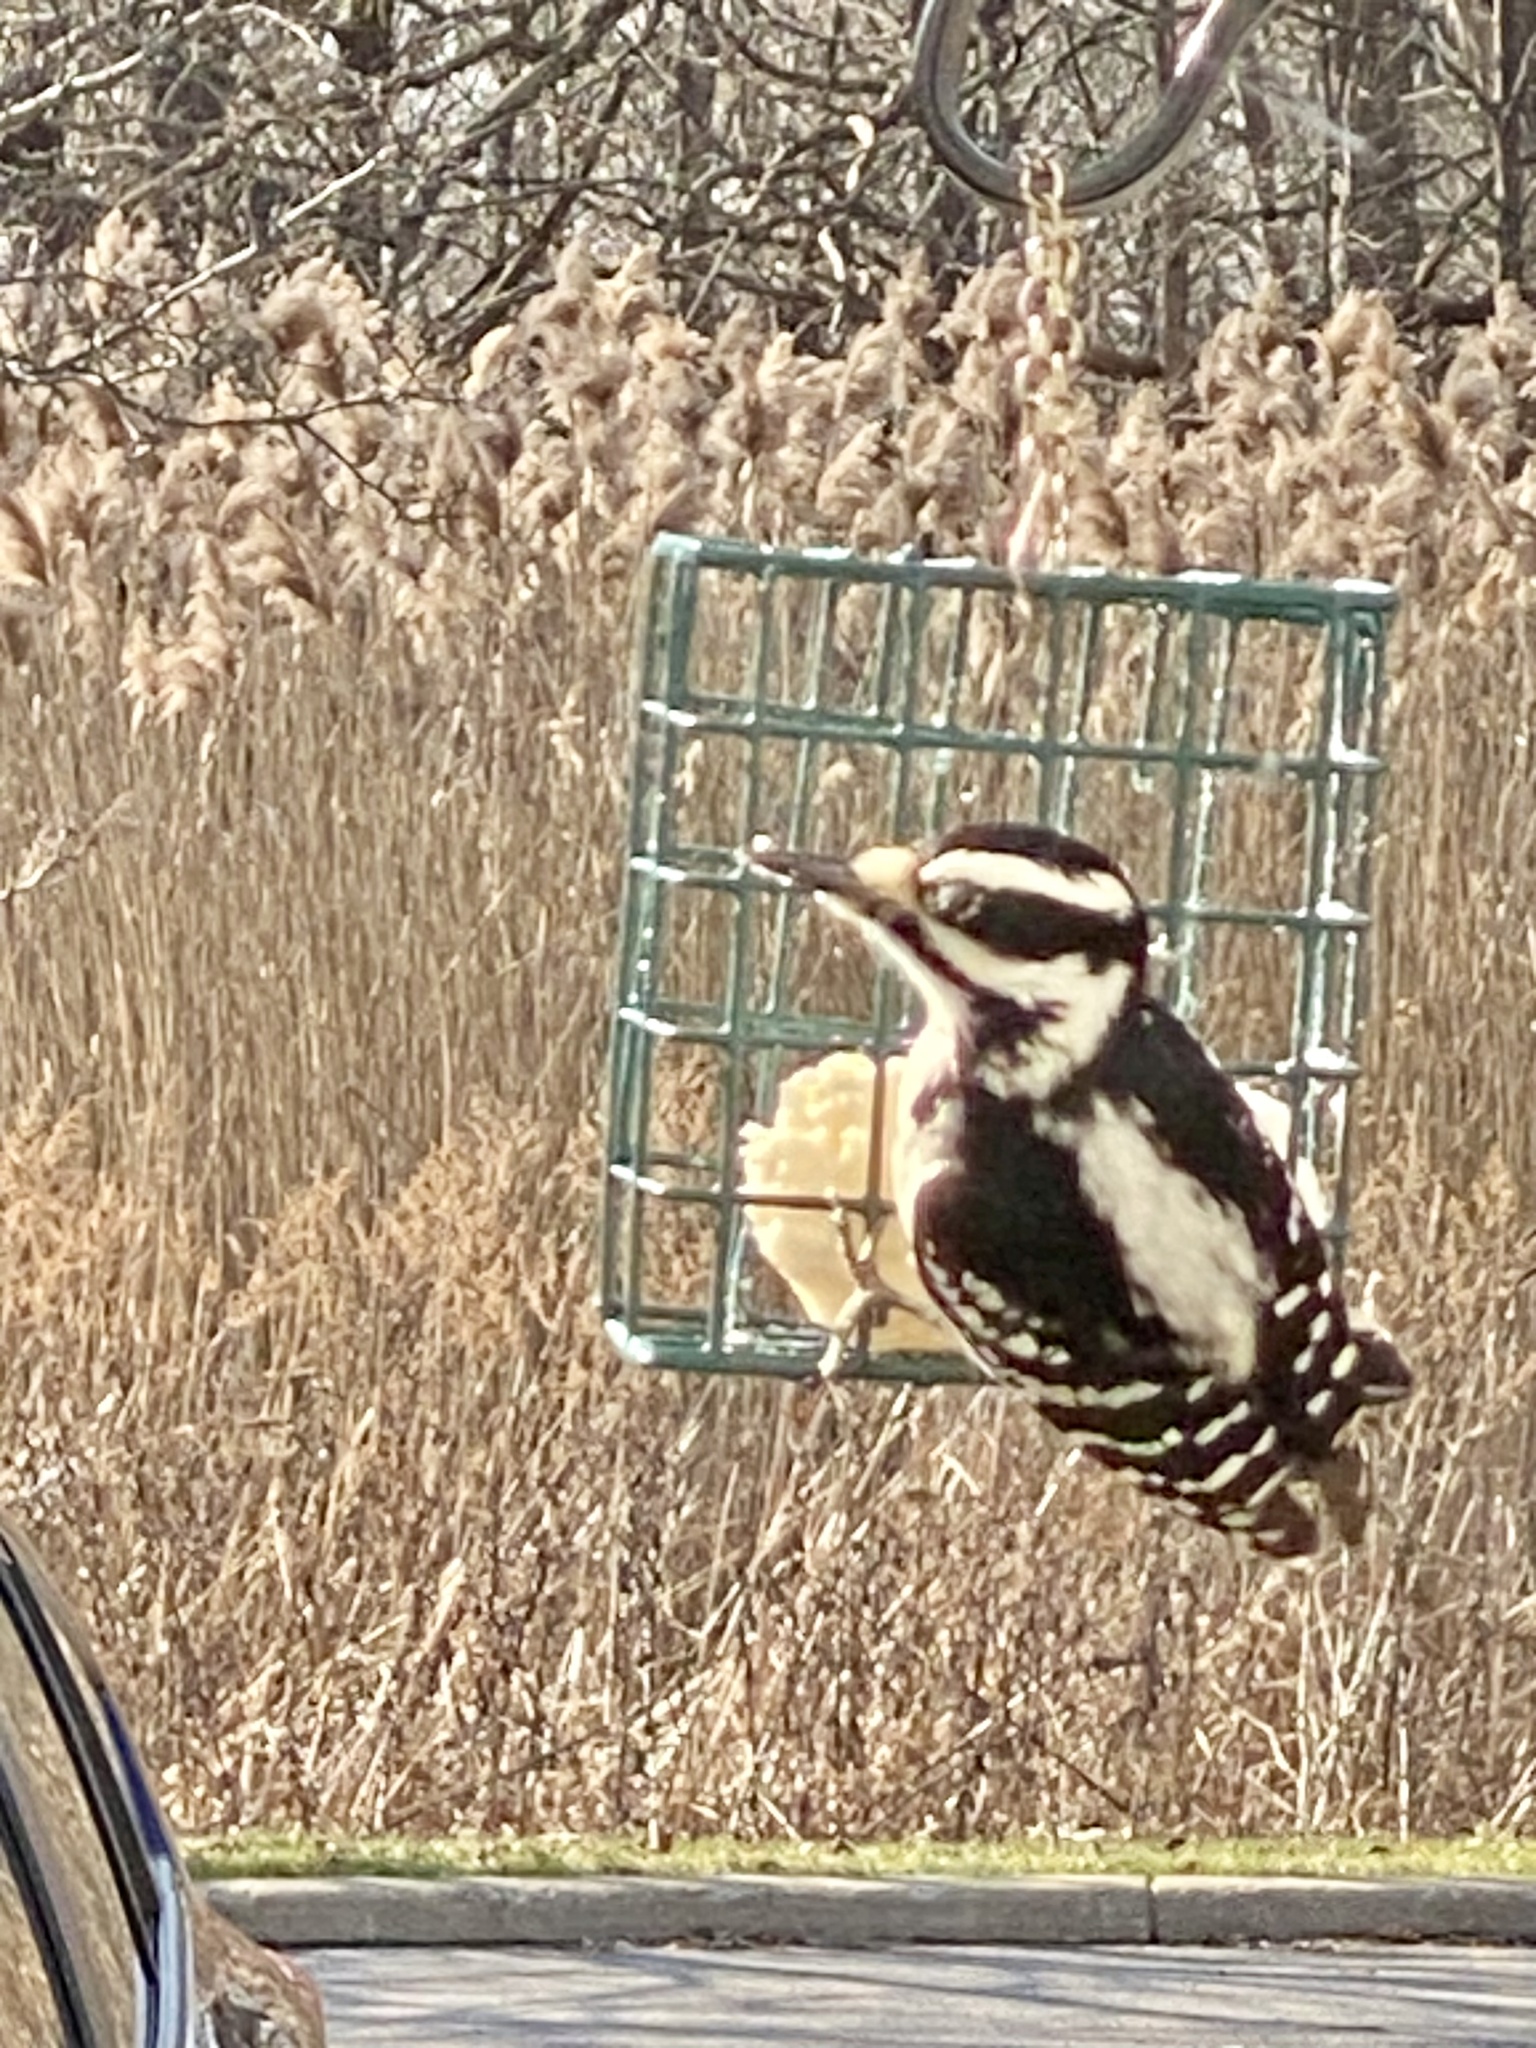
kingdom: Animalia
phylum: Chordata
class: Aves
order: Piciformes
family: Picidae
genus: Leuconotopicus
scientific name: Leuconotopicus villosus
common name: Hairy woodpecker
